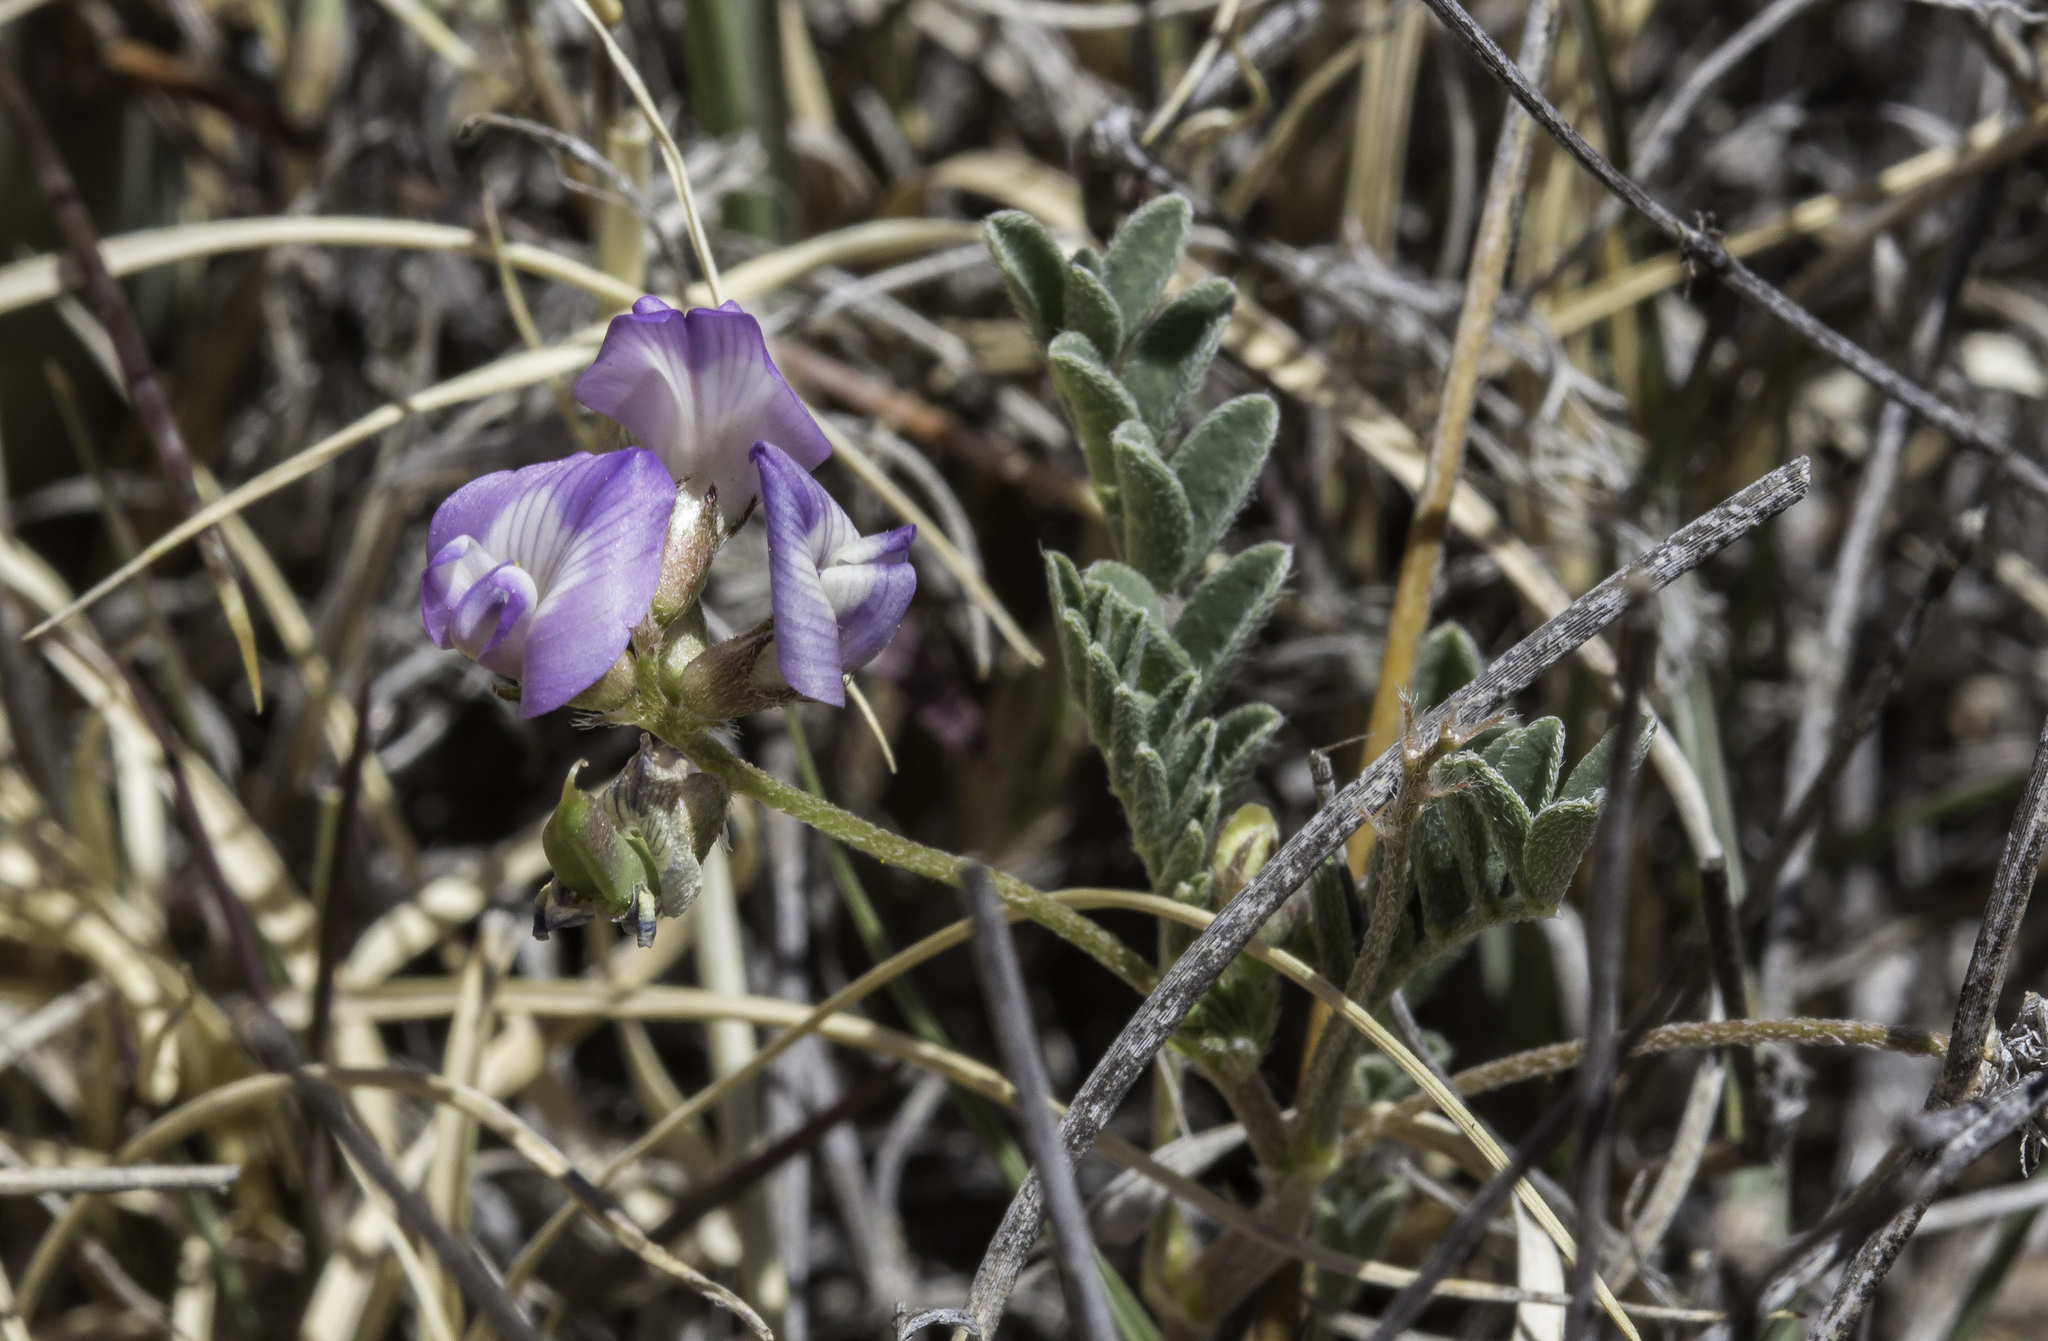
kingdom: Plantae
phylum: Tracheophyta
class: Magnoliopsida
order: Fabales
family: Fabaceae
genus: Astragalus
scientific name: Astragalus nuttallianus
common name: Smallflowered milkvetch
